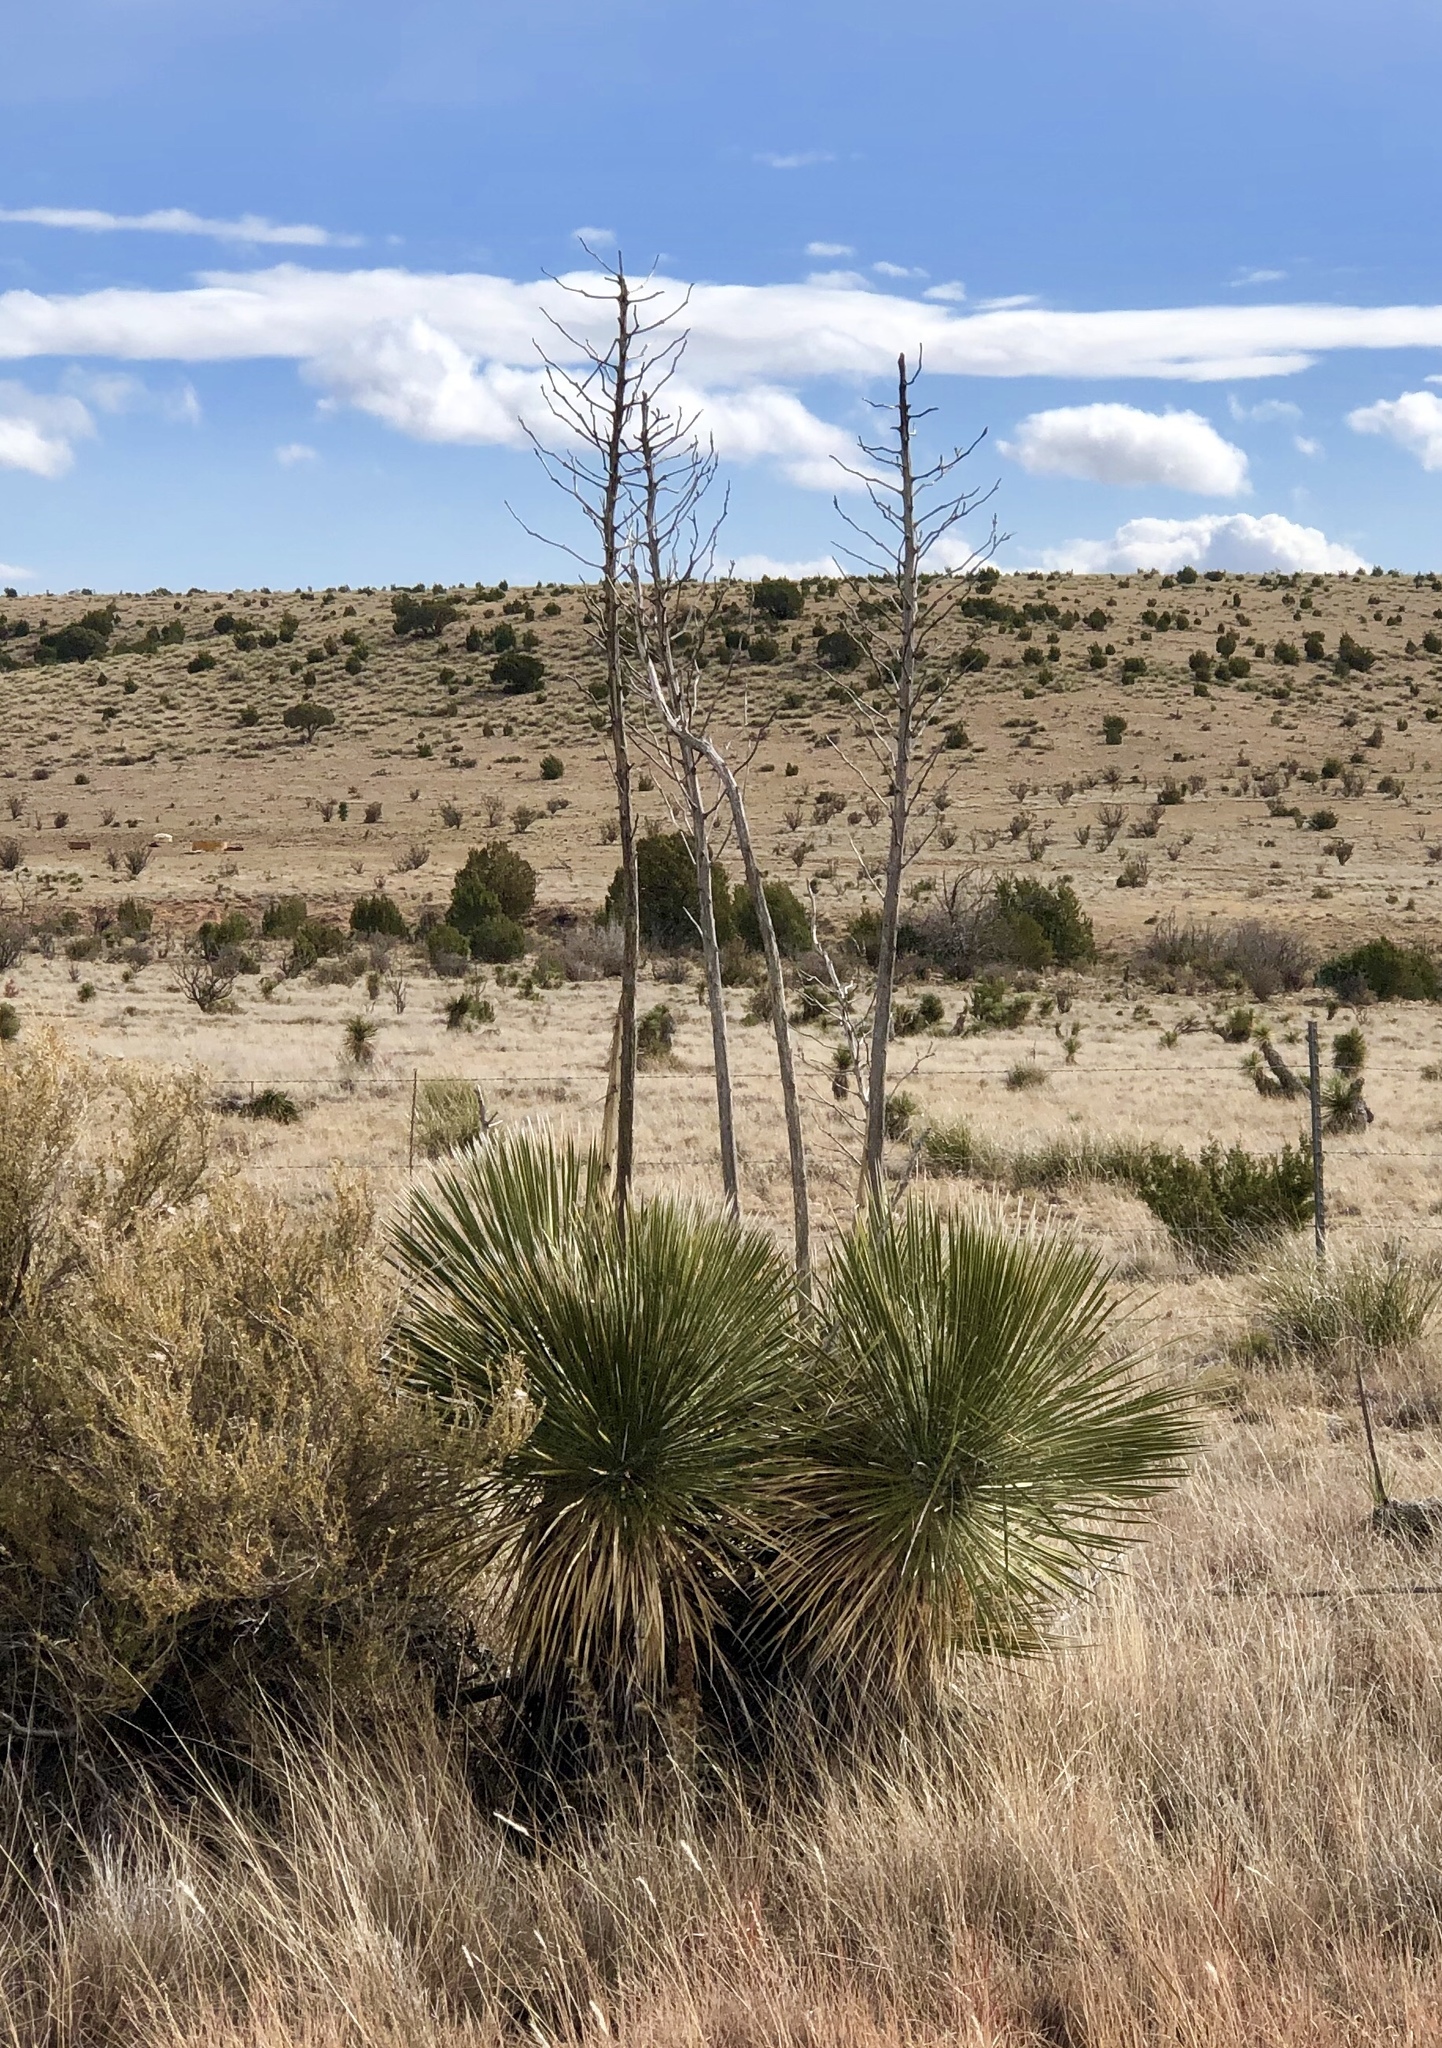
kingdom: Plantae
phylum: Tracheophyta
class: Liliopsida
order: Asparagales
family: Asparagaceae
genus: Yucca
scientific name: Yucca elata
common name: Palmella
